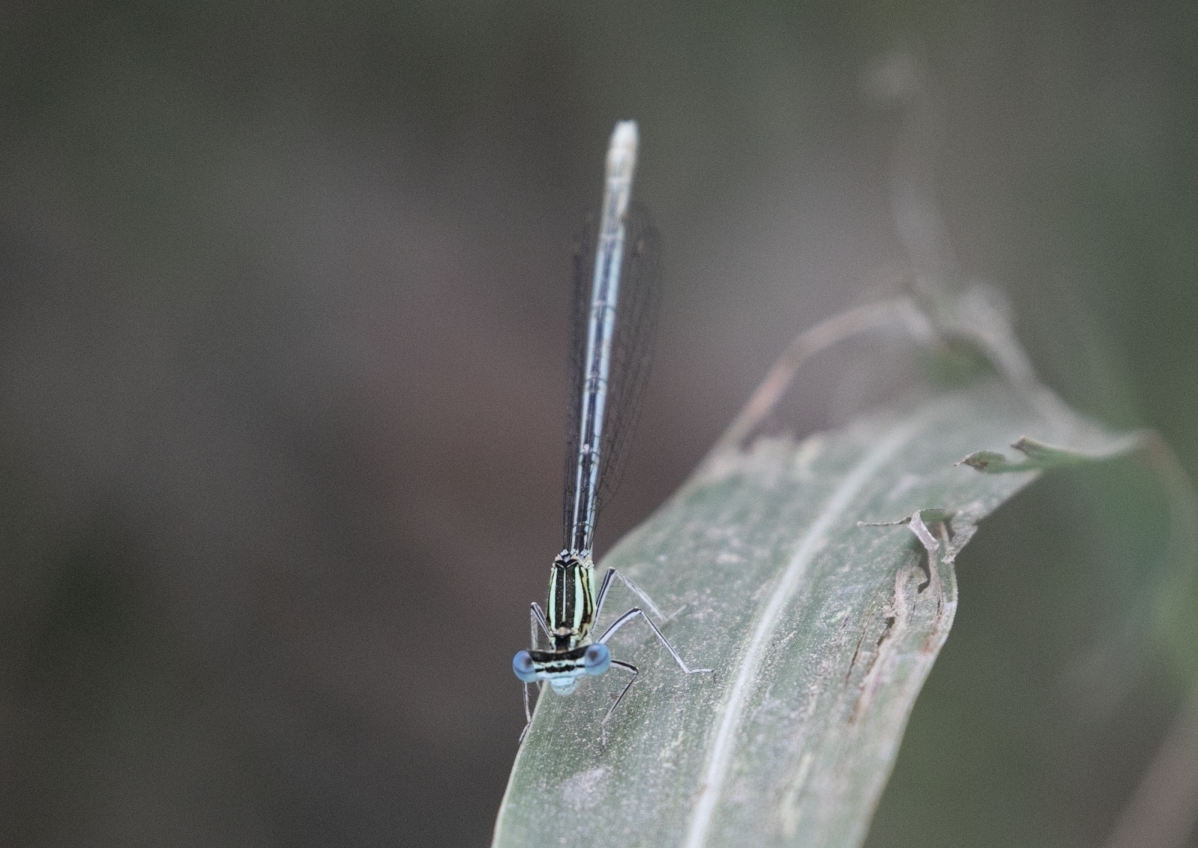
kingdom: Animalia
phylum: Arthropoda
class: Insecta
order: Odonata
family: Platycnemididae
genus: Platycnemis
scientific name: Platycnemis pennipes
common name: White-legged damselfly
